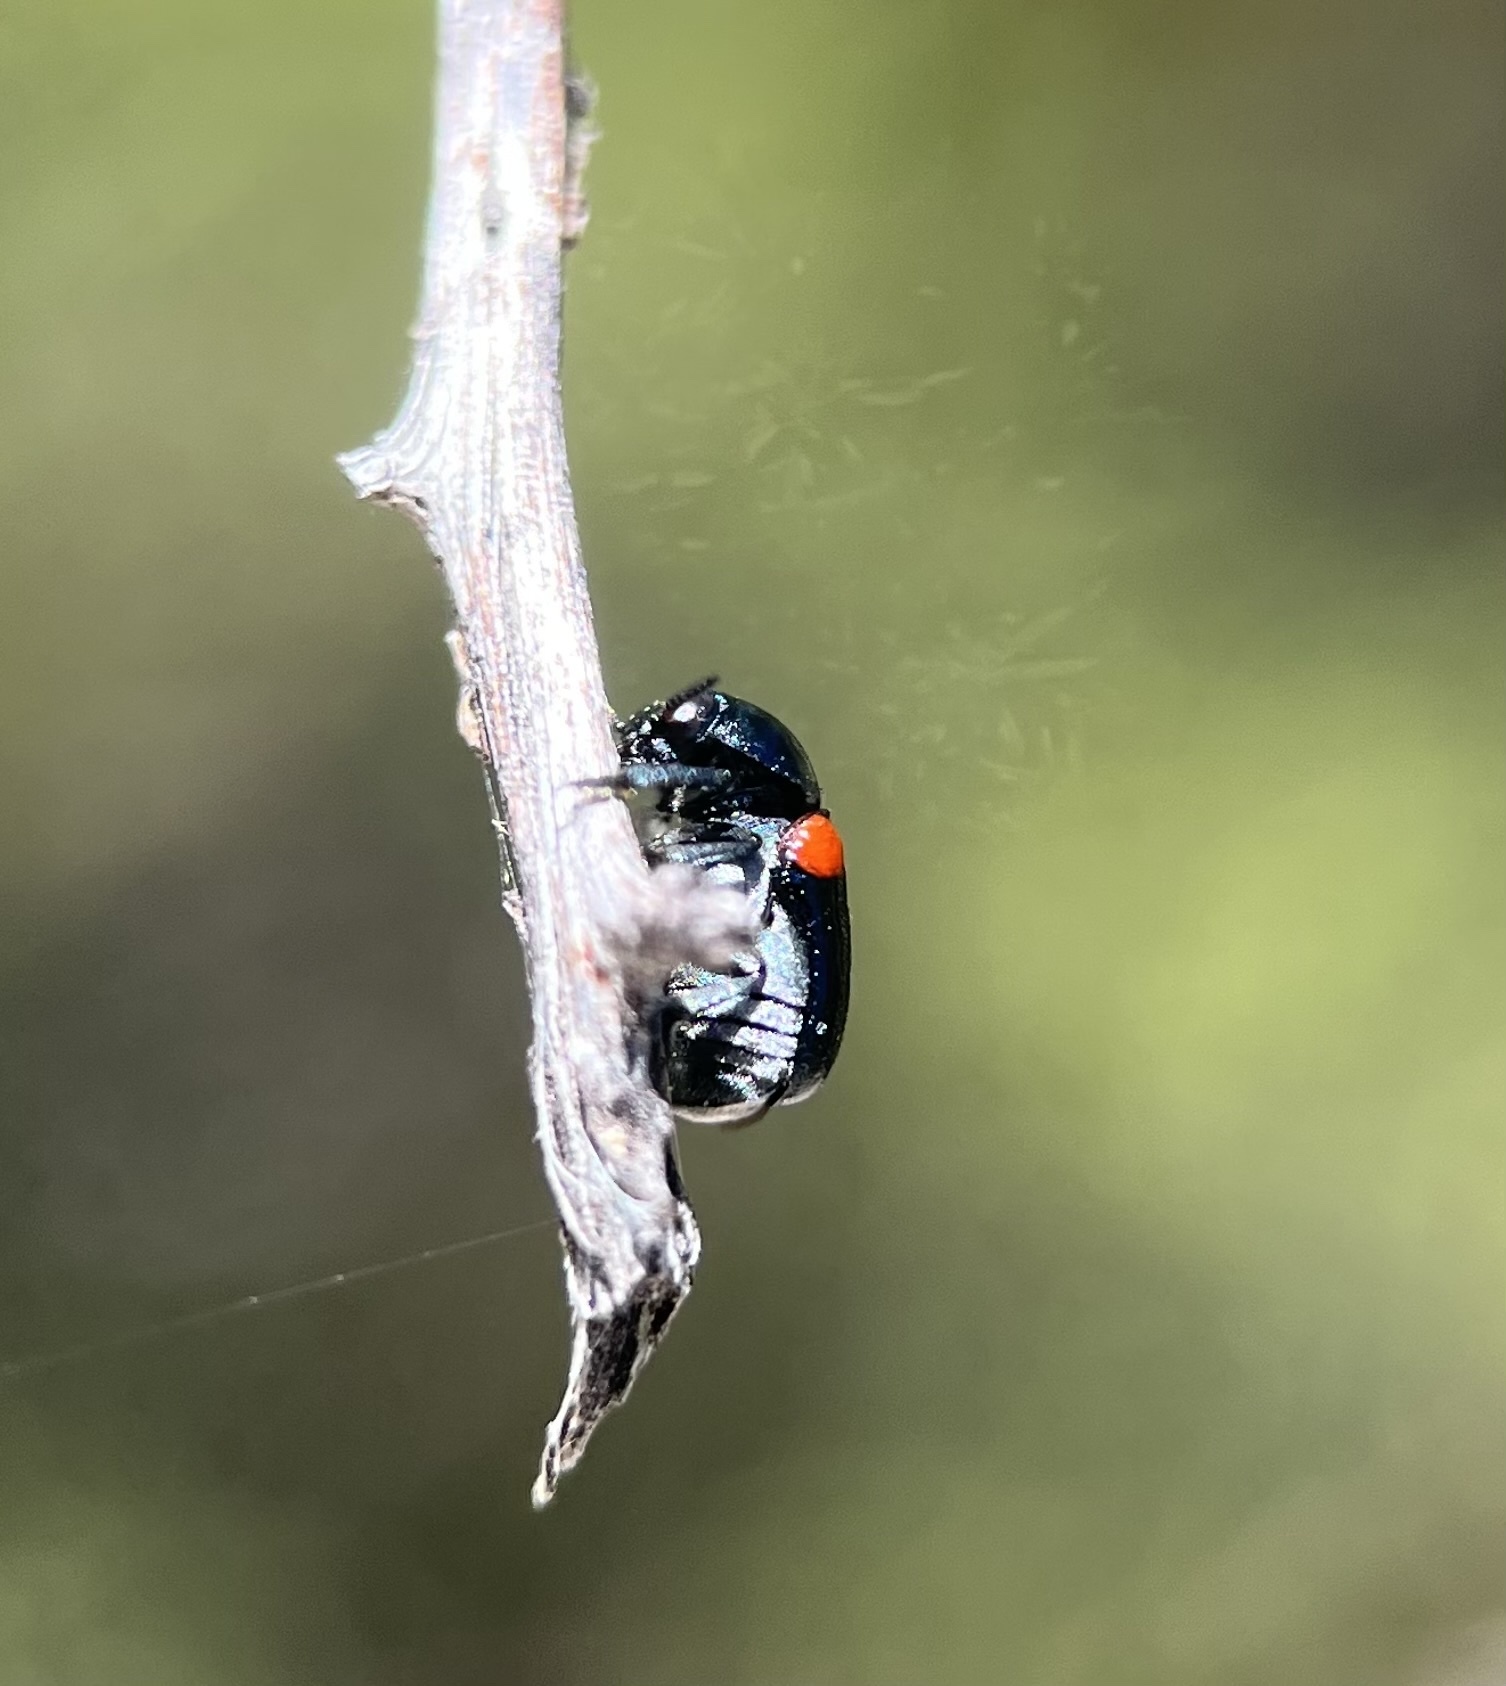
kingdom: Animalia
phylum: Arthropoda
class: Insecta
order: Coleoptera
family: Chrysomelidae
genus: Saxinis
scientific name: Saxinis saucia
